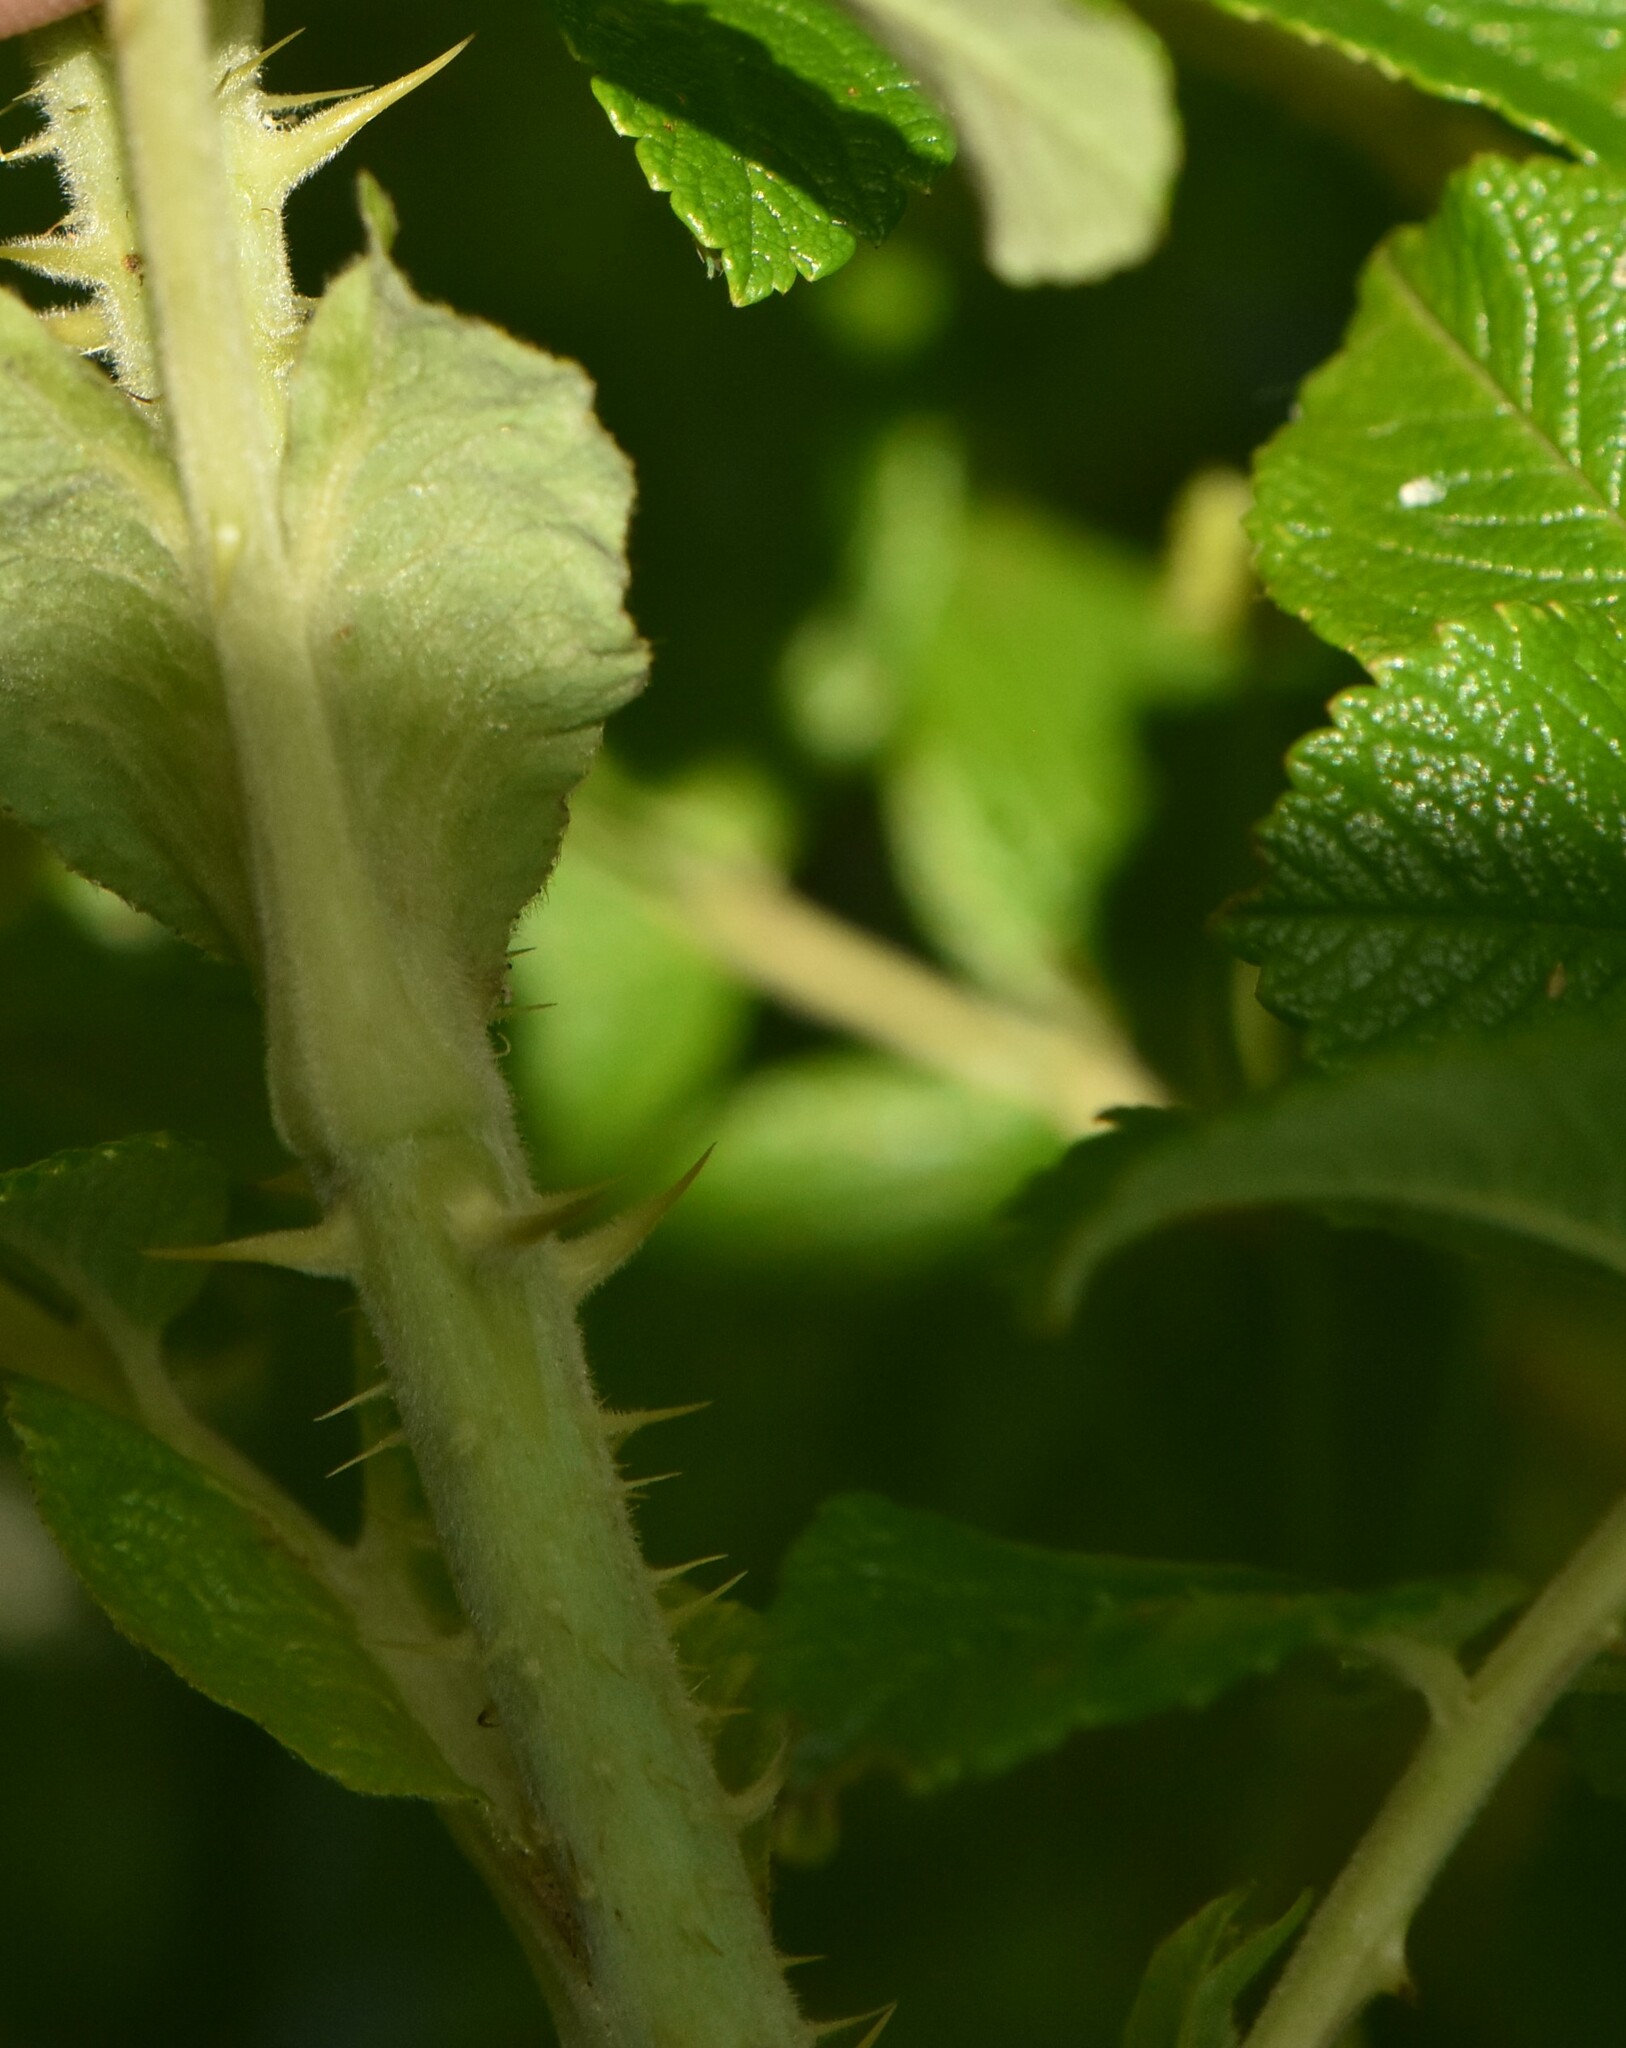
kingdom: Plantae
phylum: Tracheophyta
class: Magnoliopsida
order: Rosales
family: Rosaceae
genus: Rosa
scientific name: Rosa rugosa
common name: Japanese rose
